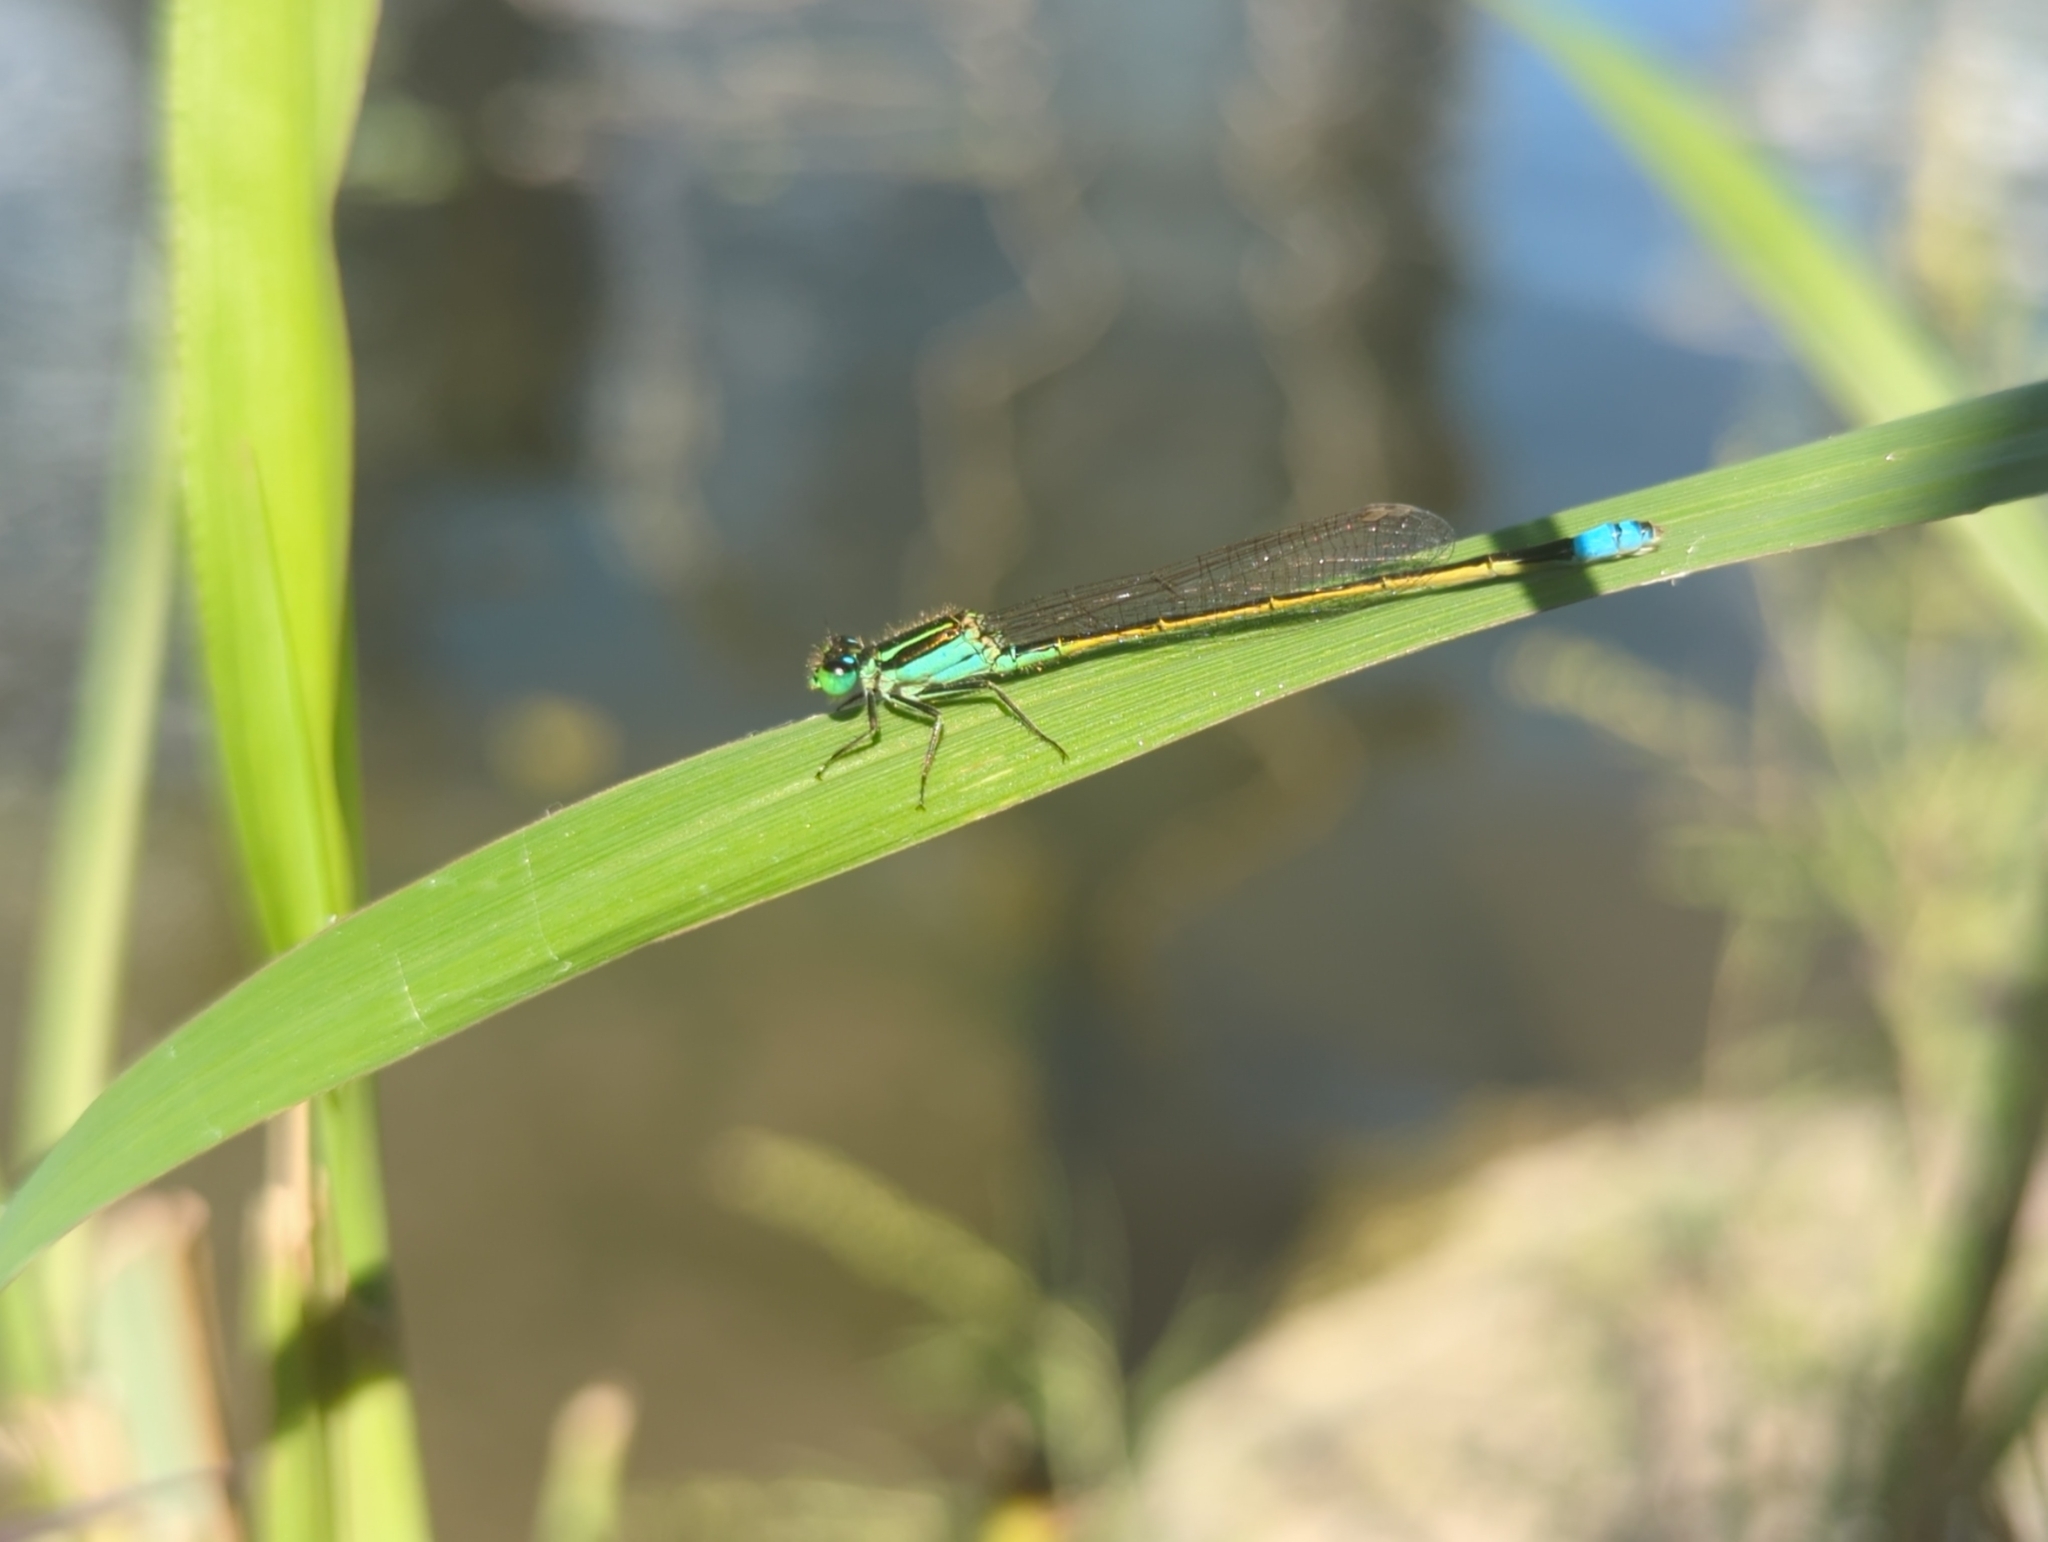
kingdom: Animalia
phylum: Arthropoda
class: Insecta
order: Odonata
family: Coenagrionidae
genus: Ischnura
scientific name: Ischnura ramburii
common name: Rambur's forktail
